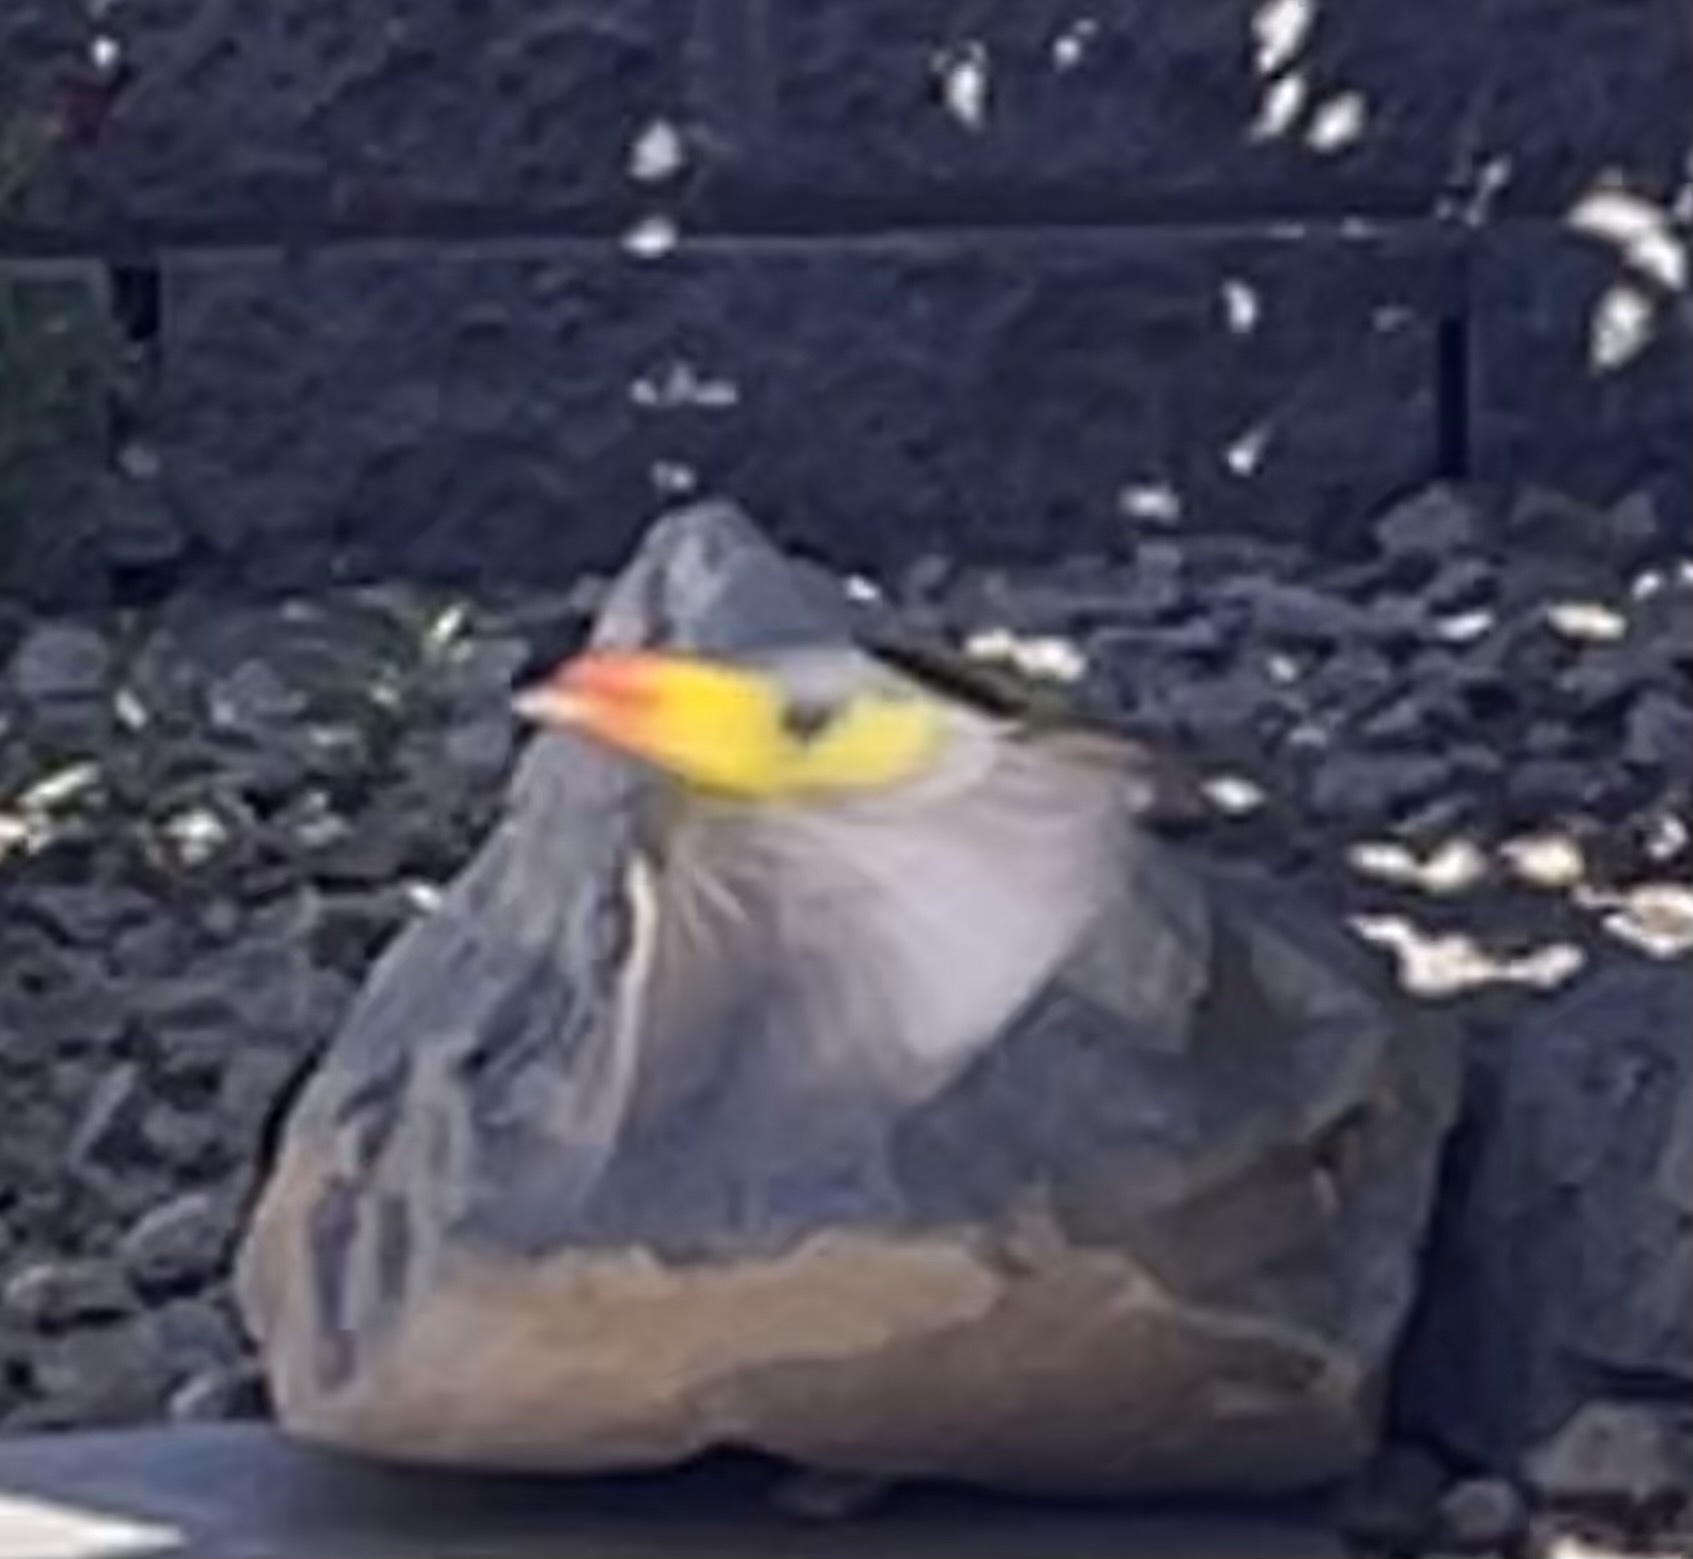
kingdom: Animalia
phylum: Chordata
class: Aves
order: Passeriformes
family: Cardinalidae
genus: Piranga
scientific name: Piranga ludoviciana
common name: Western tanager
